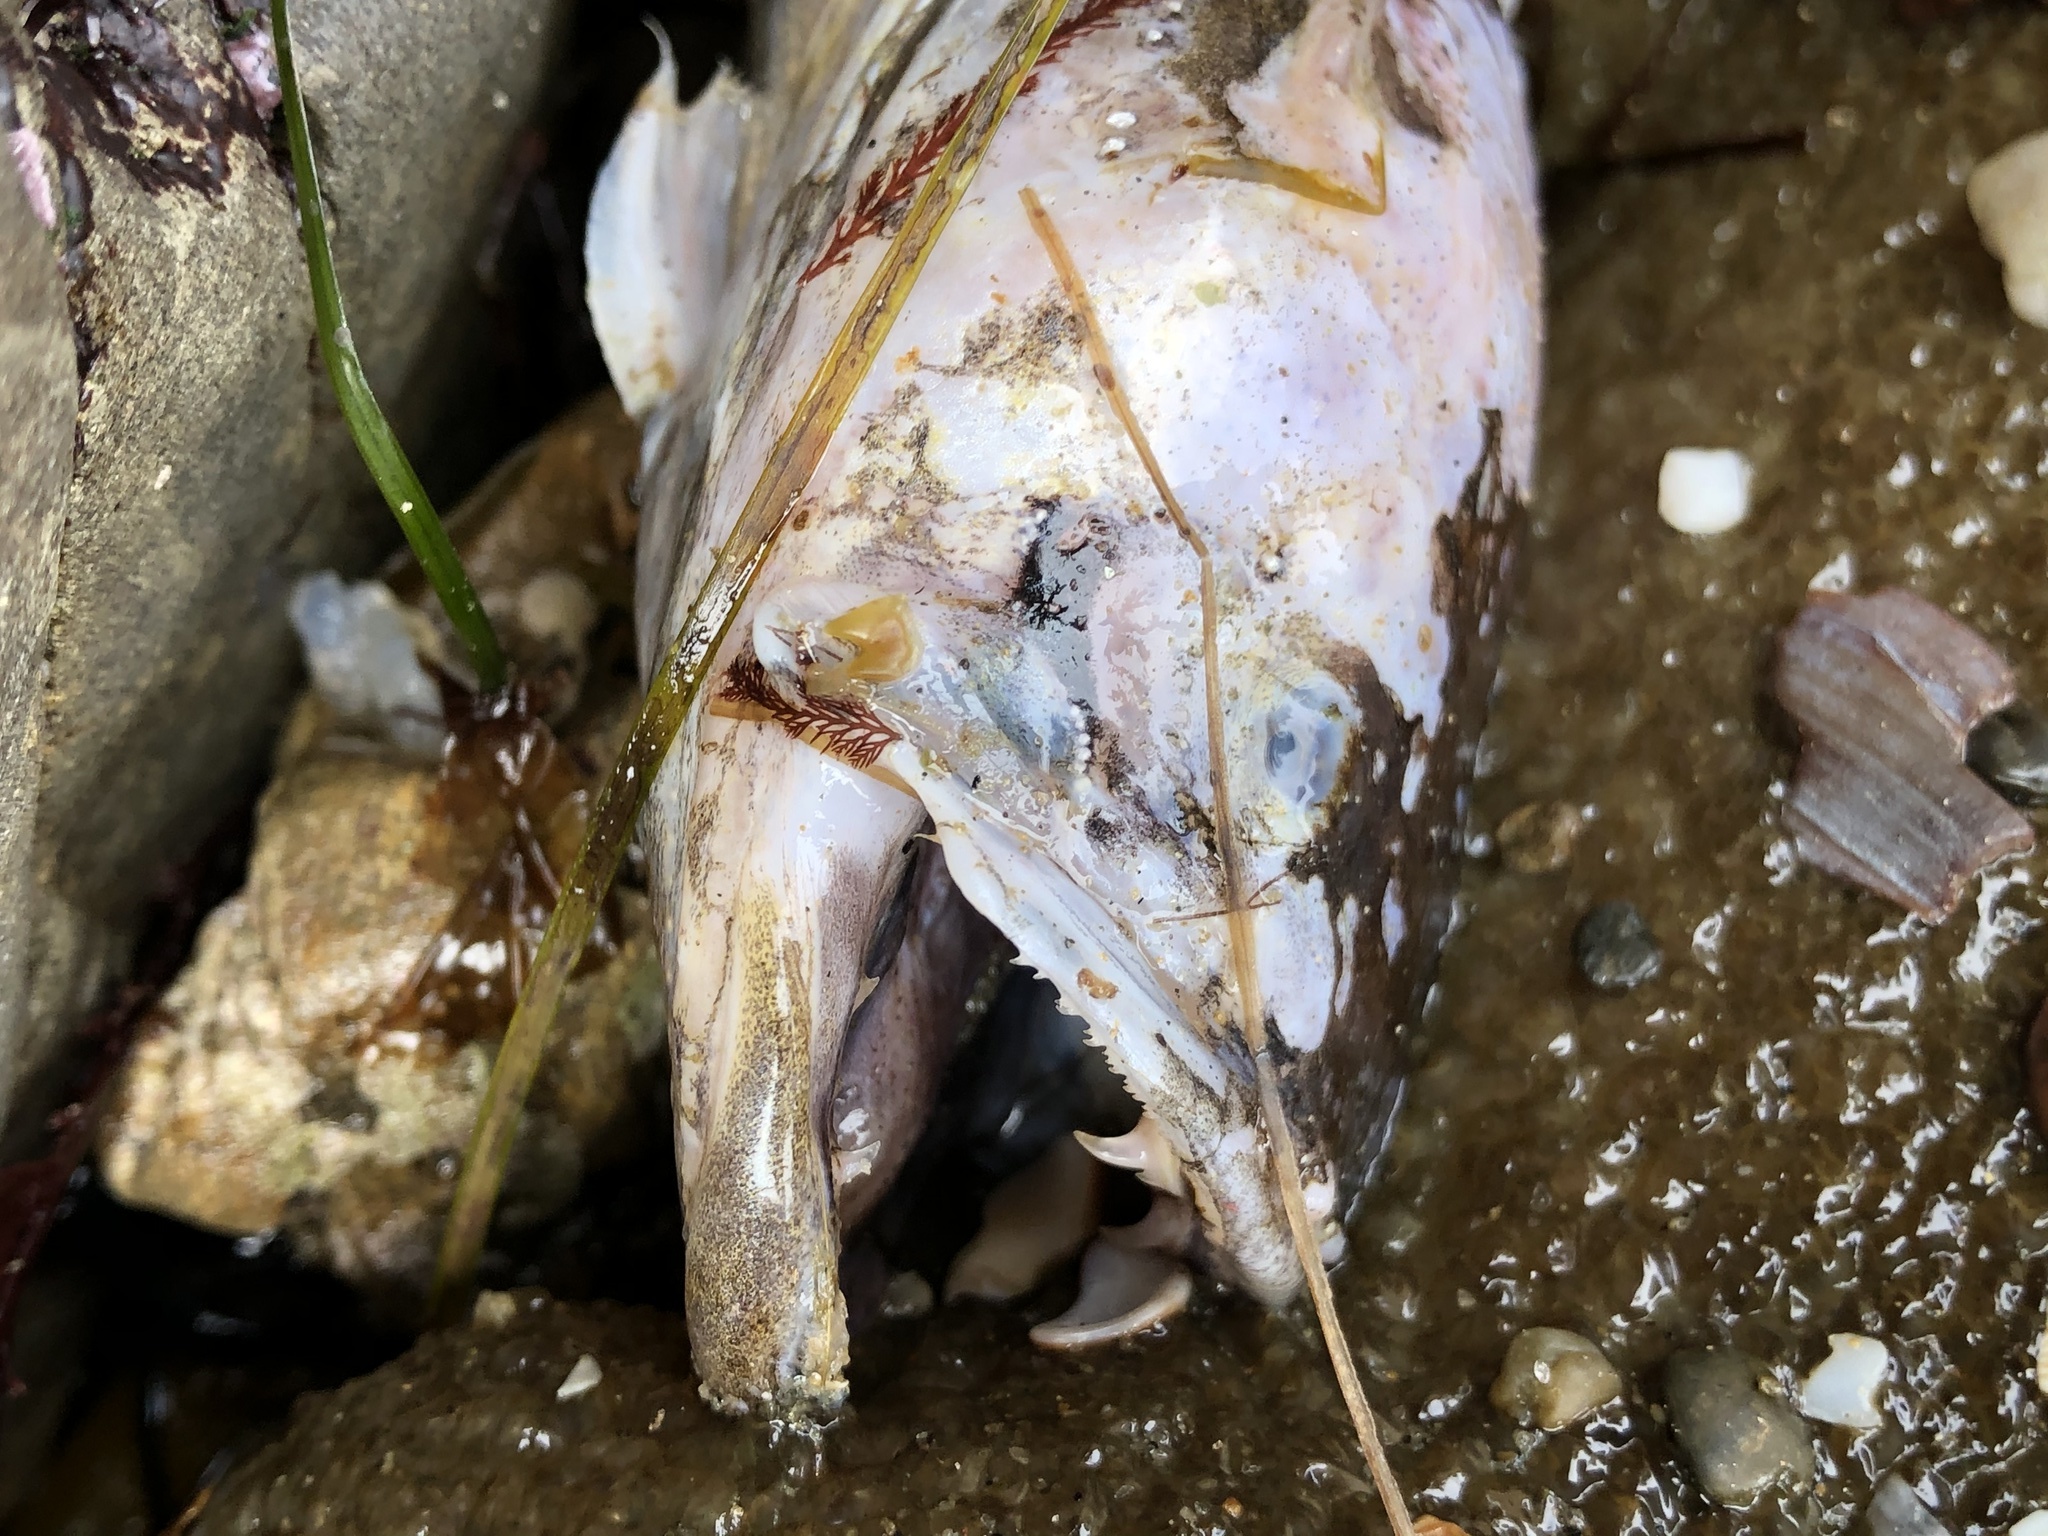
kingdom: Animalia
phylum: Chordata
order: Batrachoidiformes
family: Batrachoididae
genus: Porichthys
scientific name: Porichthys notatus
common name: Plainfin midshipman
